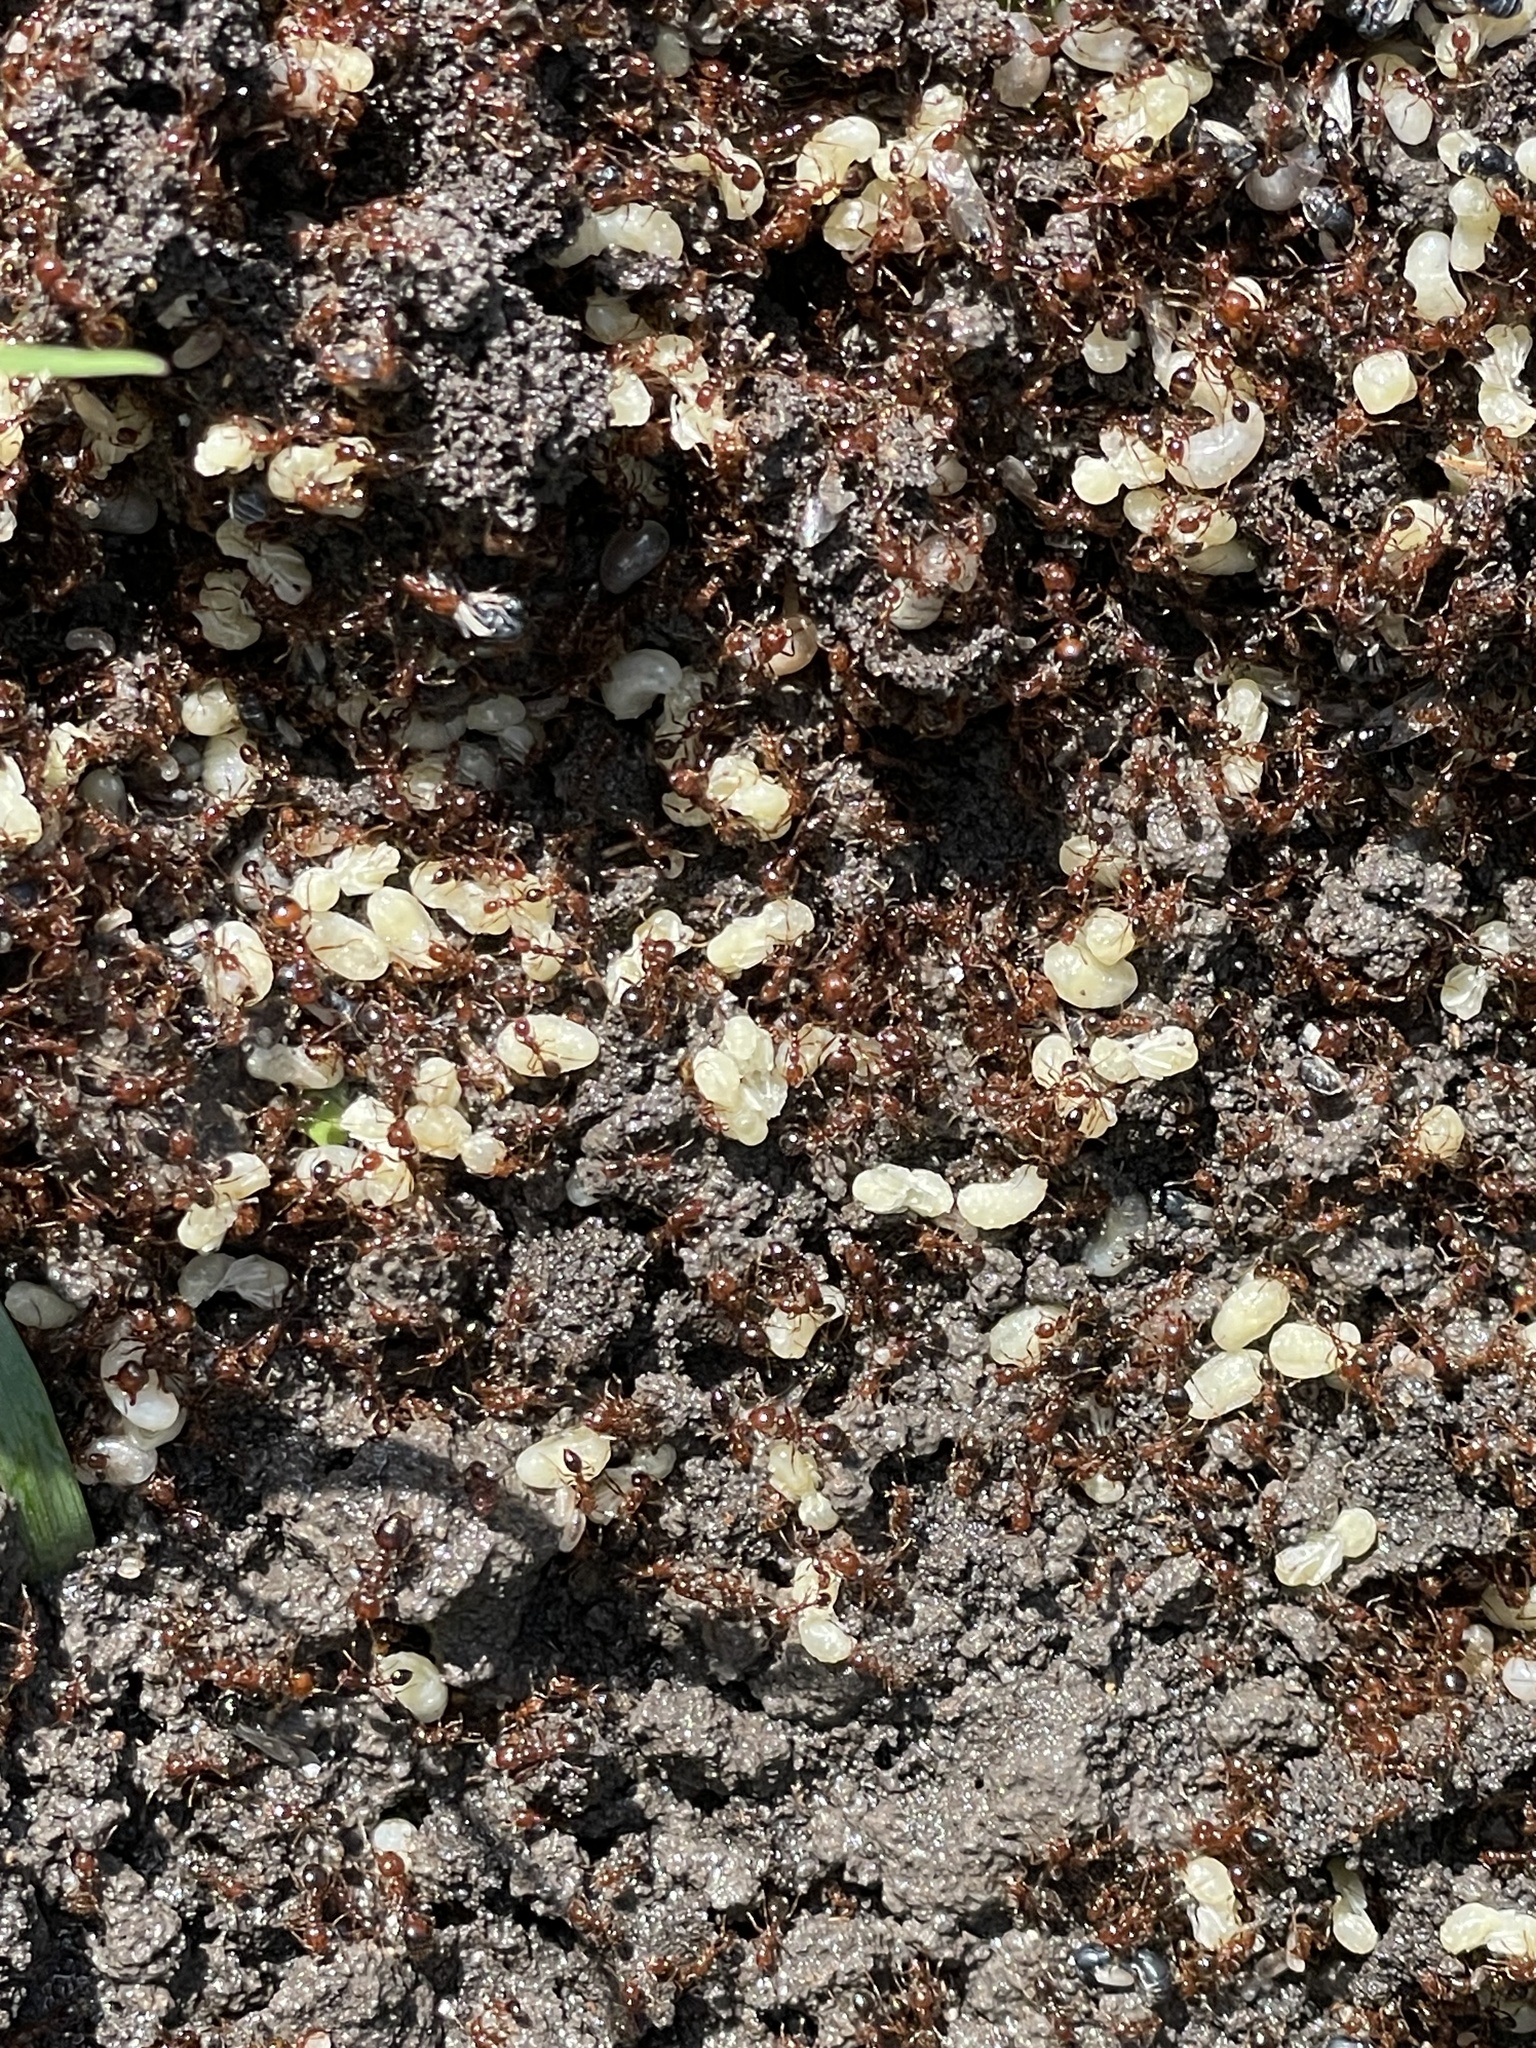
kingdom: Animalia
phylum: Arthropoda
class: Insecta
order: Hymenoptera
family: Formicidae
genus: Solenopsis
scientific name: Solenopsis invicta
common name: Red imported fire ant
